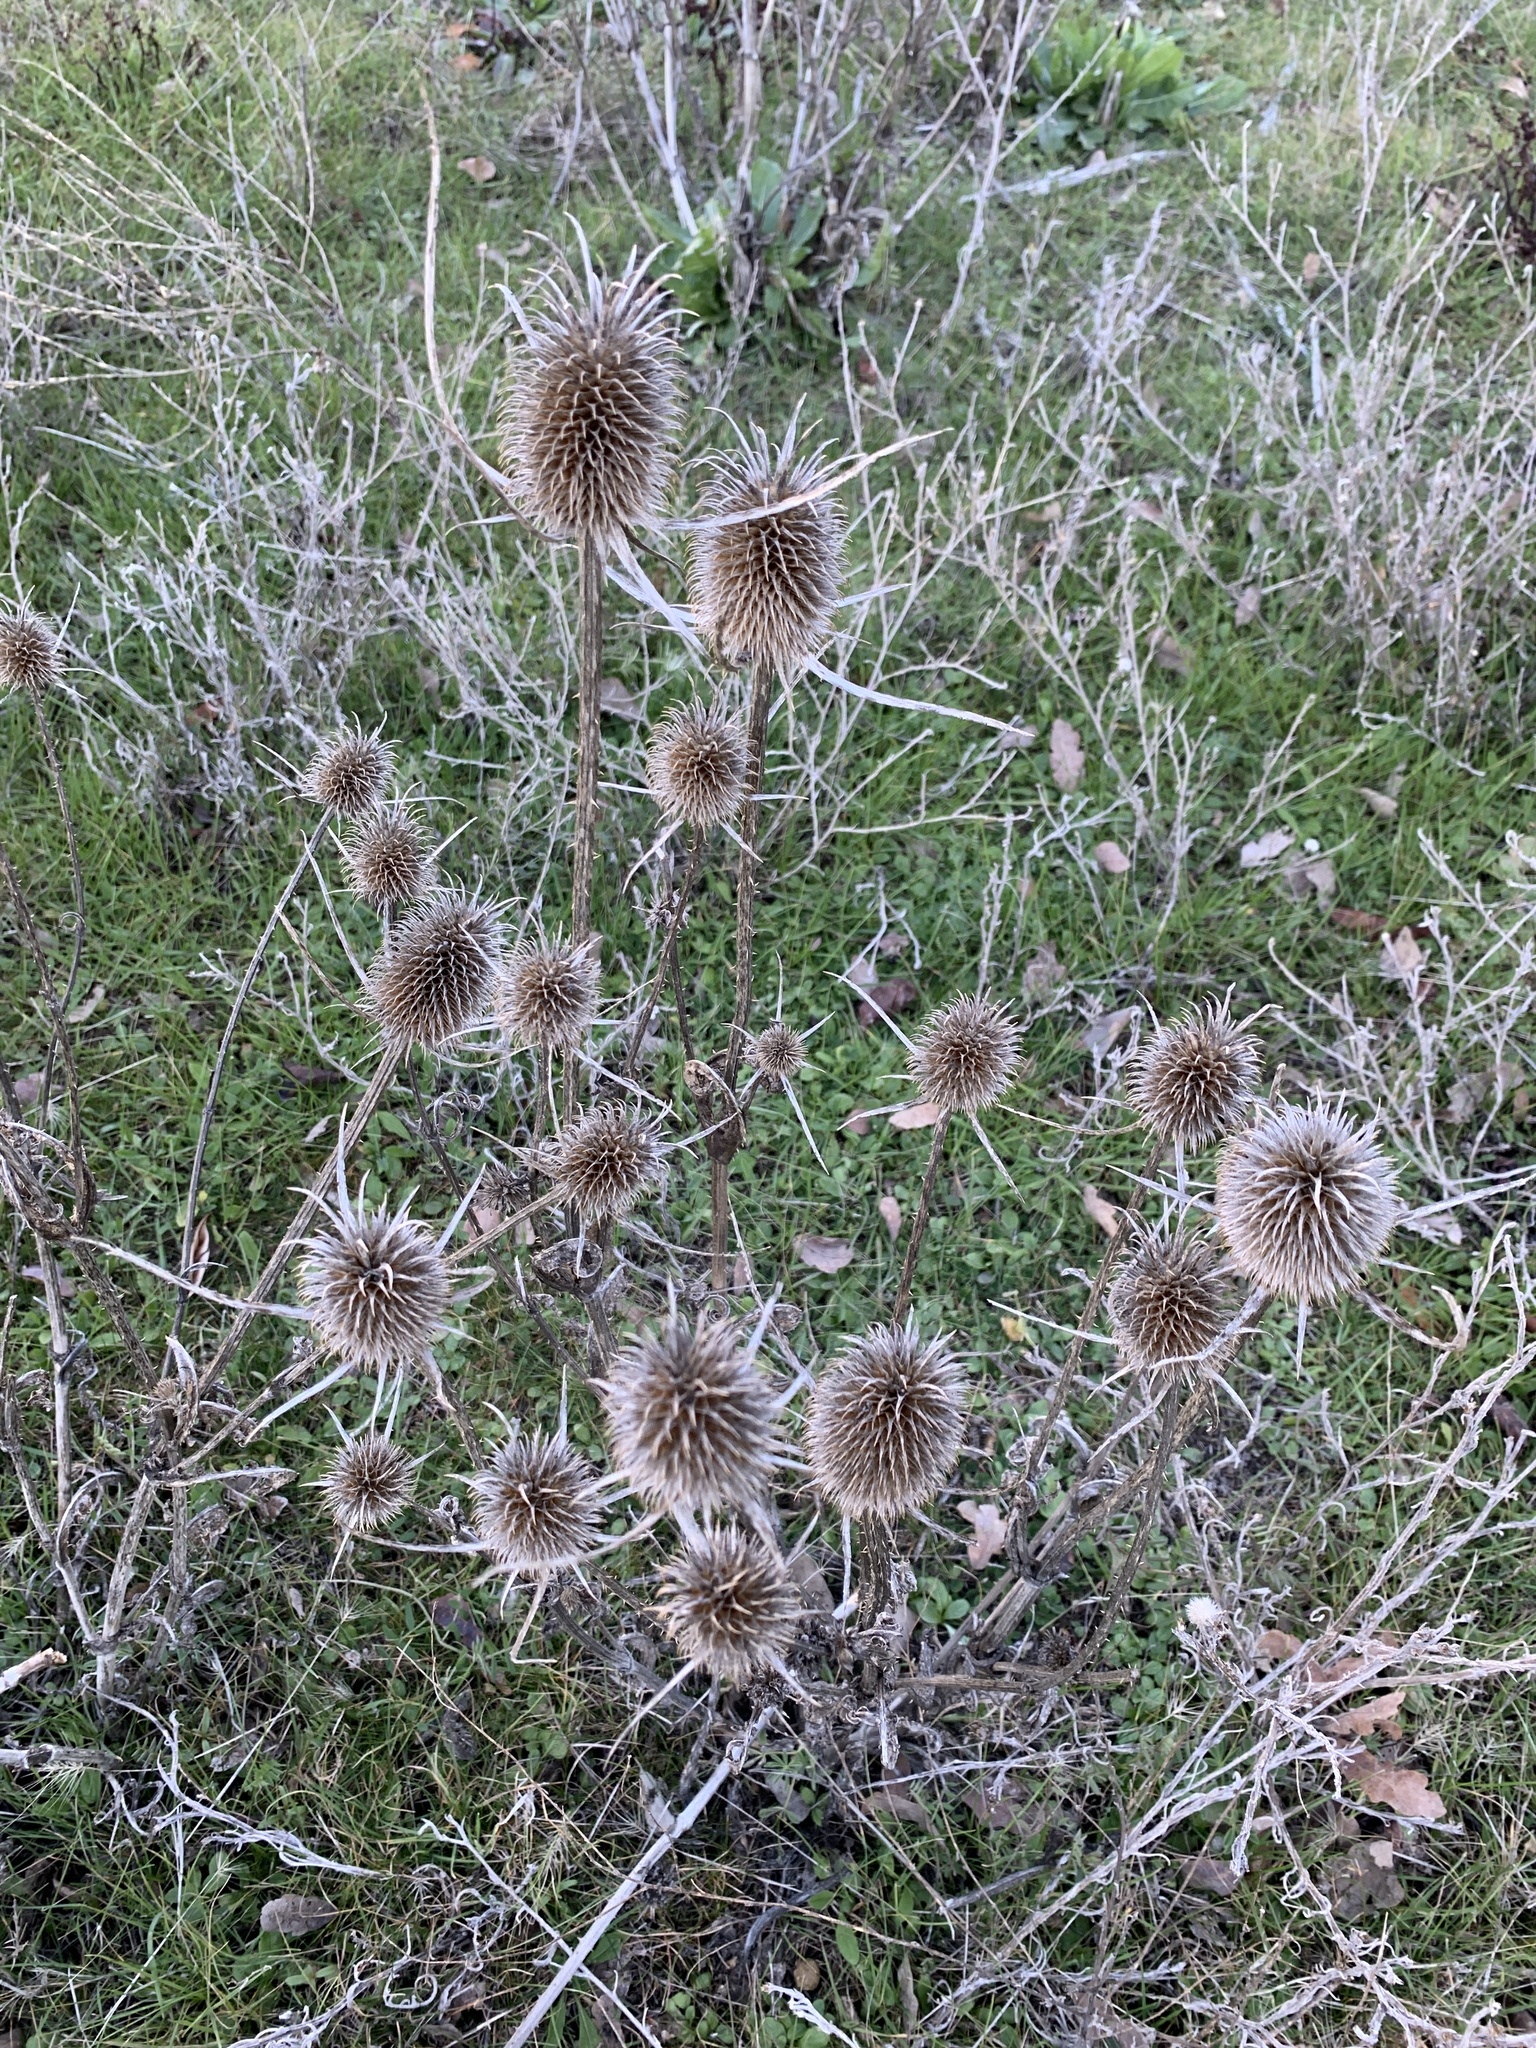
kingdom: Plantae
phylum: Tracheophyta
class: Magnoliopsida
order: Dipsacales
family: Caprifoliaceae
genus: Dipsacus
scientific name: Dipsacus sativus
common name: Fuller's teasel
